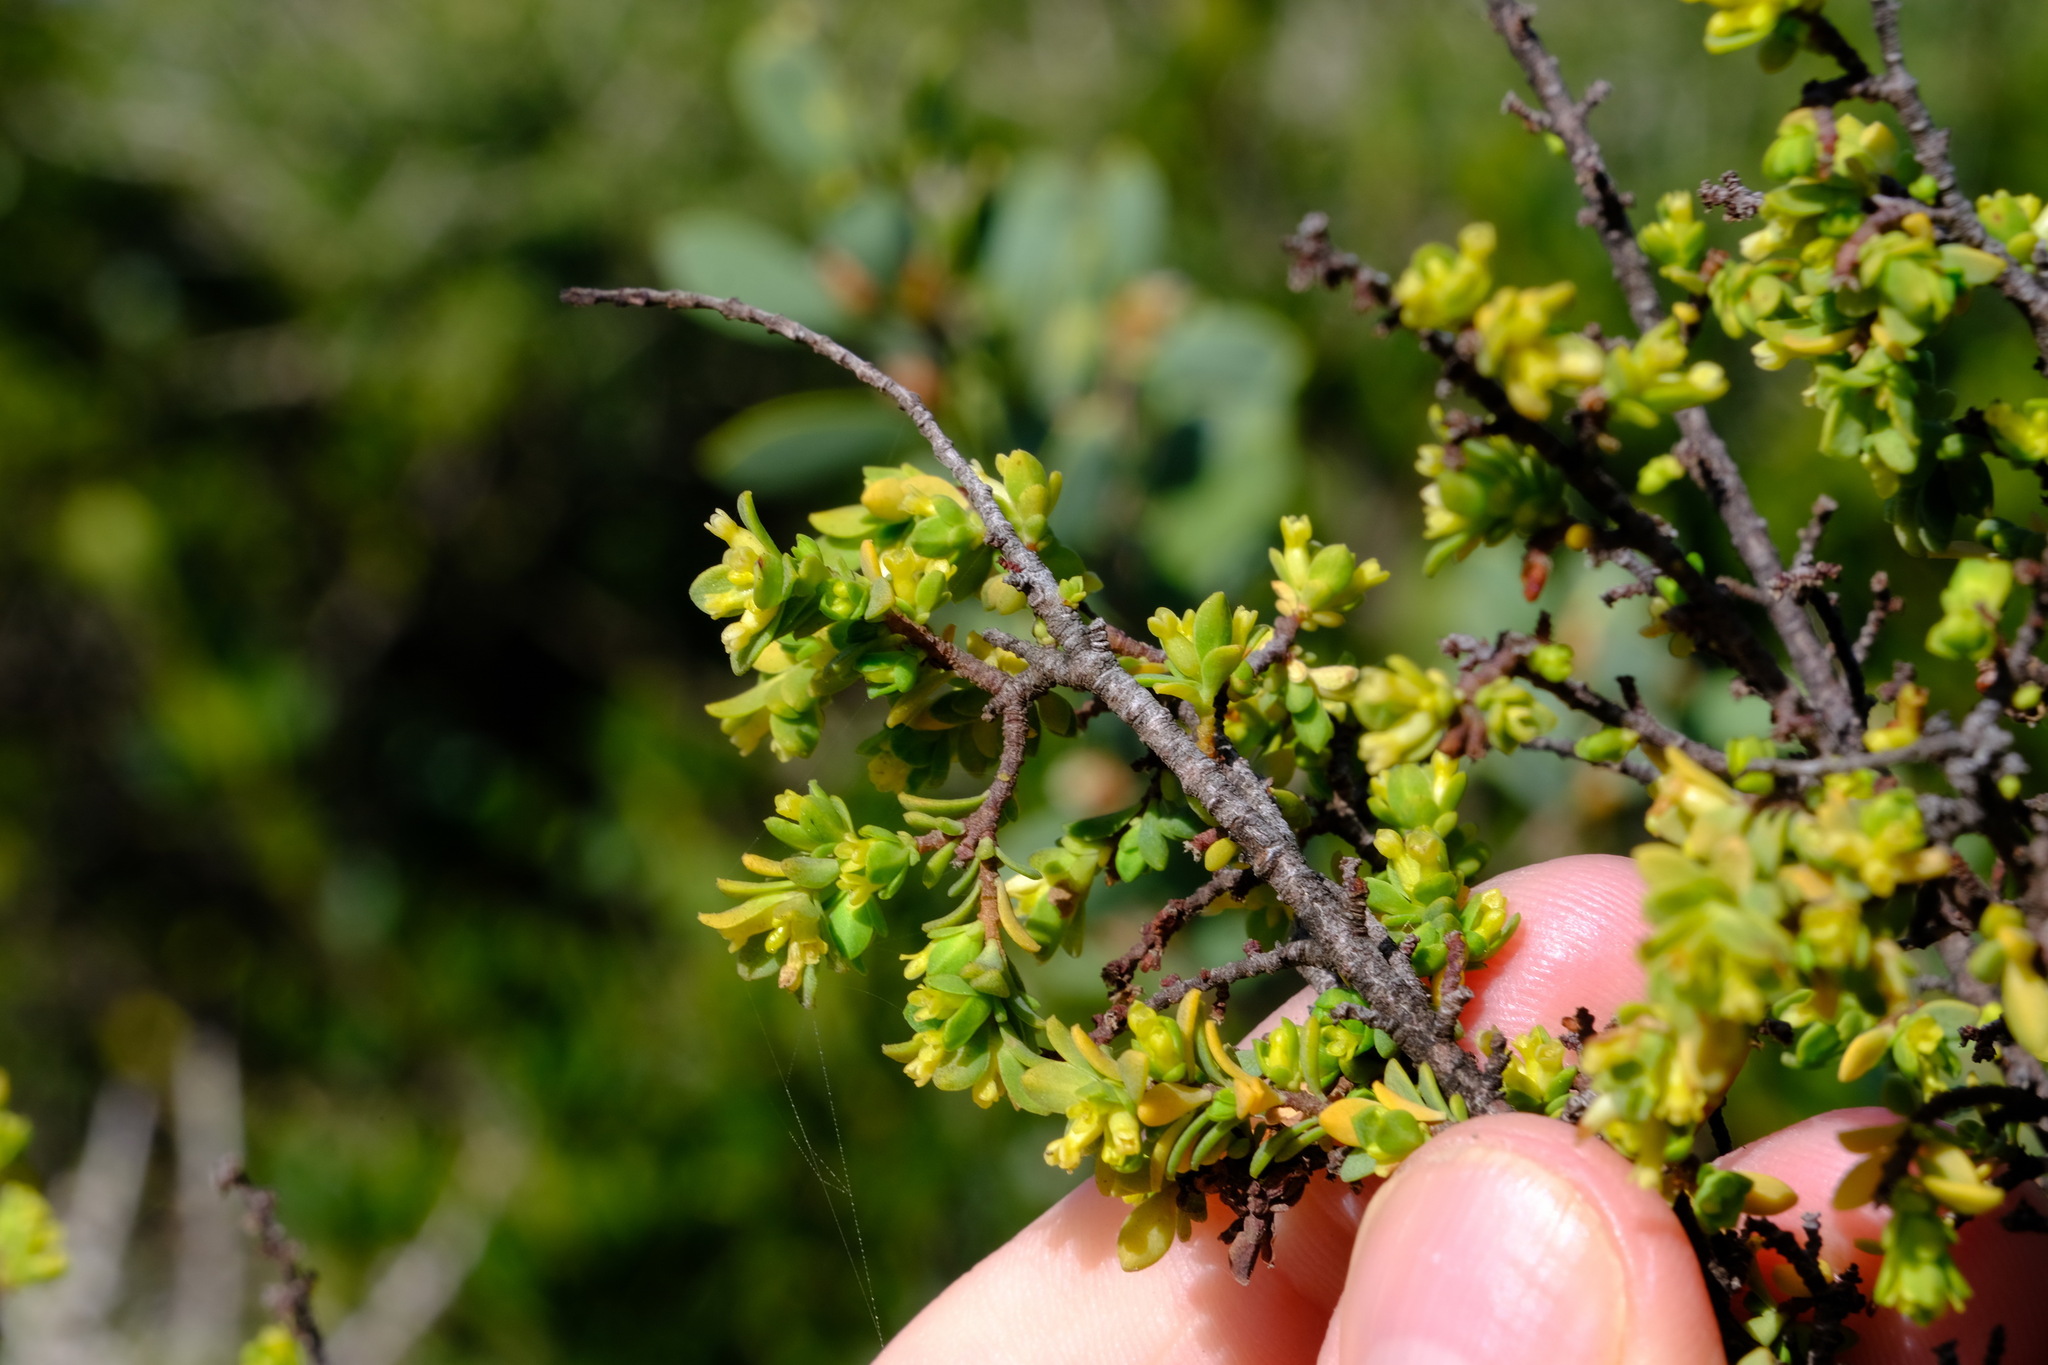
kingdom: Plantae
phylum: Tracheophyta
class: Magnoliopsida
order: Malvales
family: Thymelaeaceae
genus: Pimelea
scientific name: Pimelea serpyllifolia
